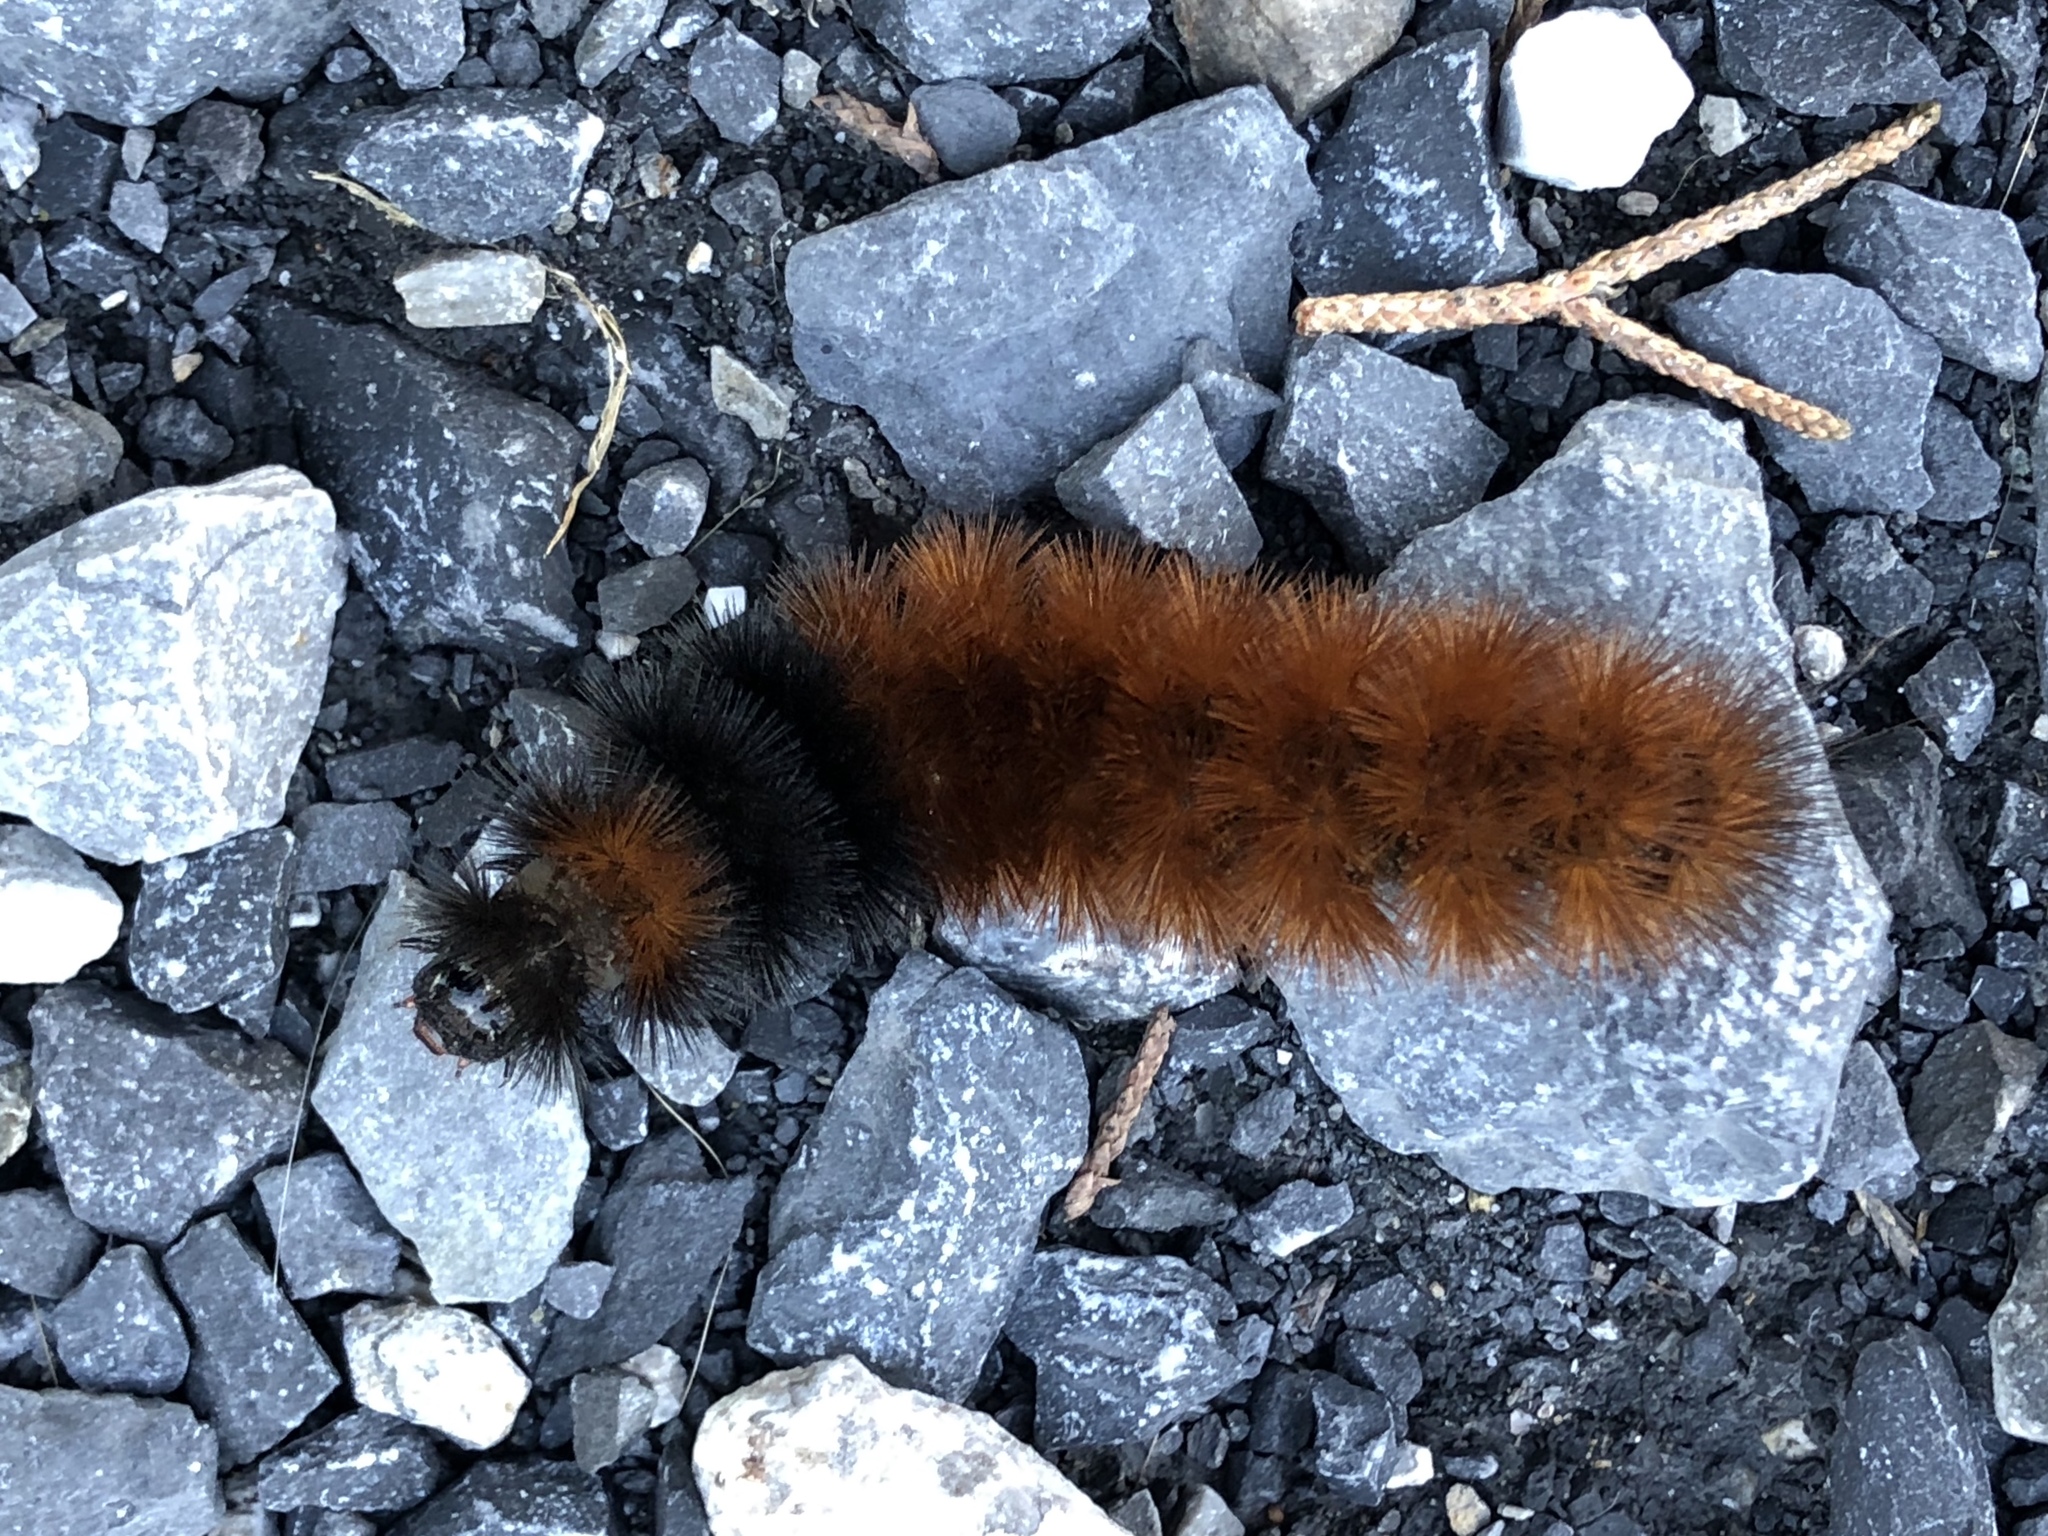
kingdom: Animalia
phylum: Arthropoda
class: Insecta
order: Lepidoptera
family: Erebidae
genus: Pyrrharctia
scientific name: Pyrrharctia isabella
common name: Isabella tiger moth
